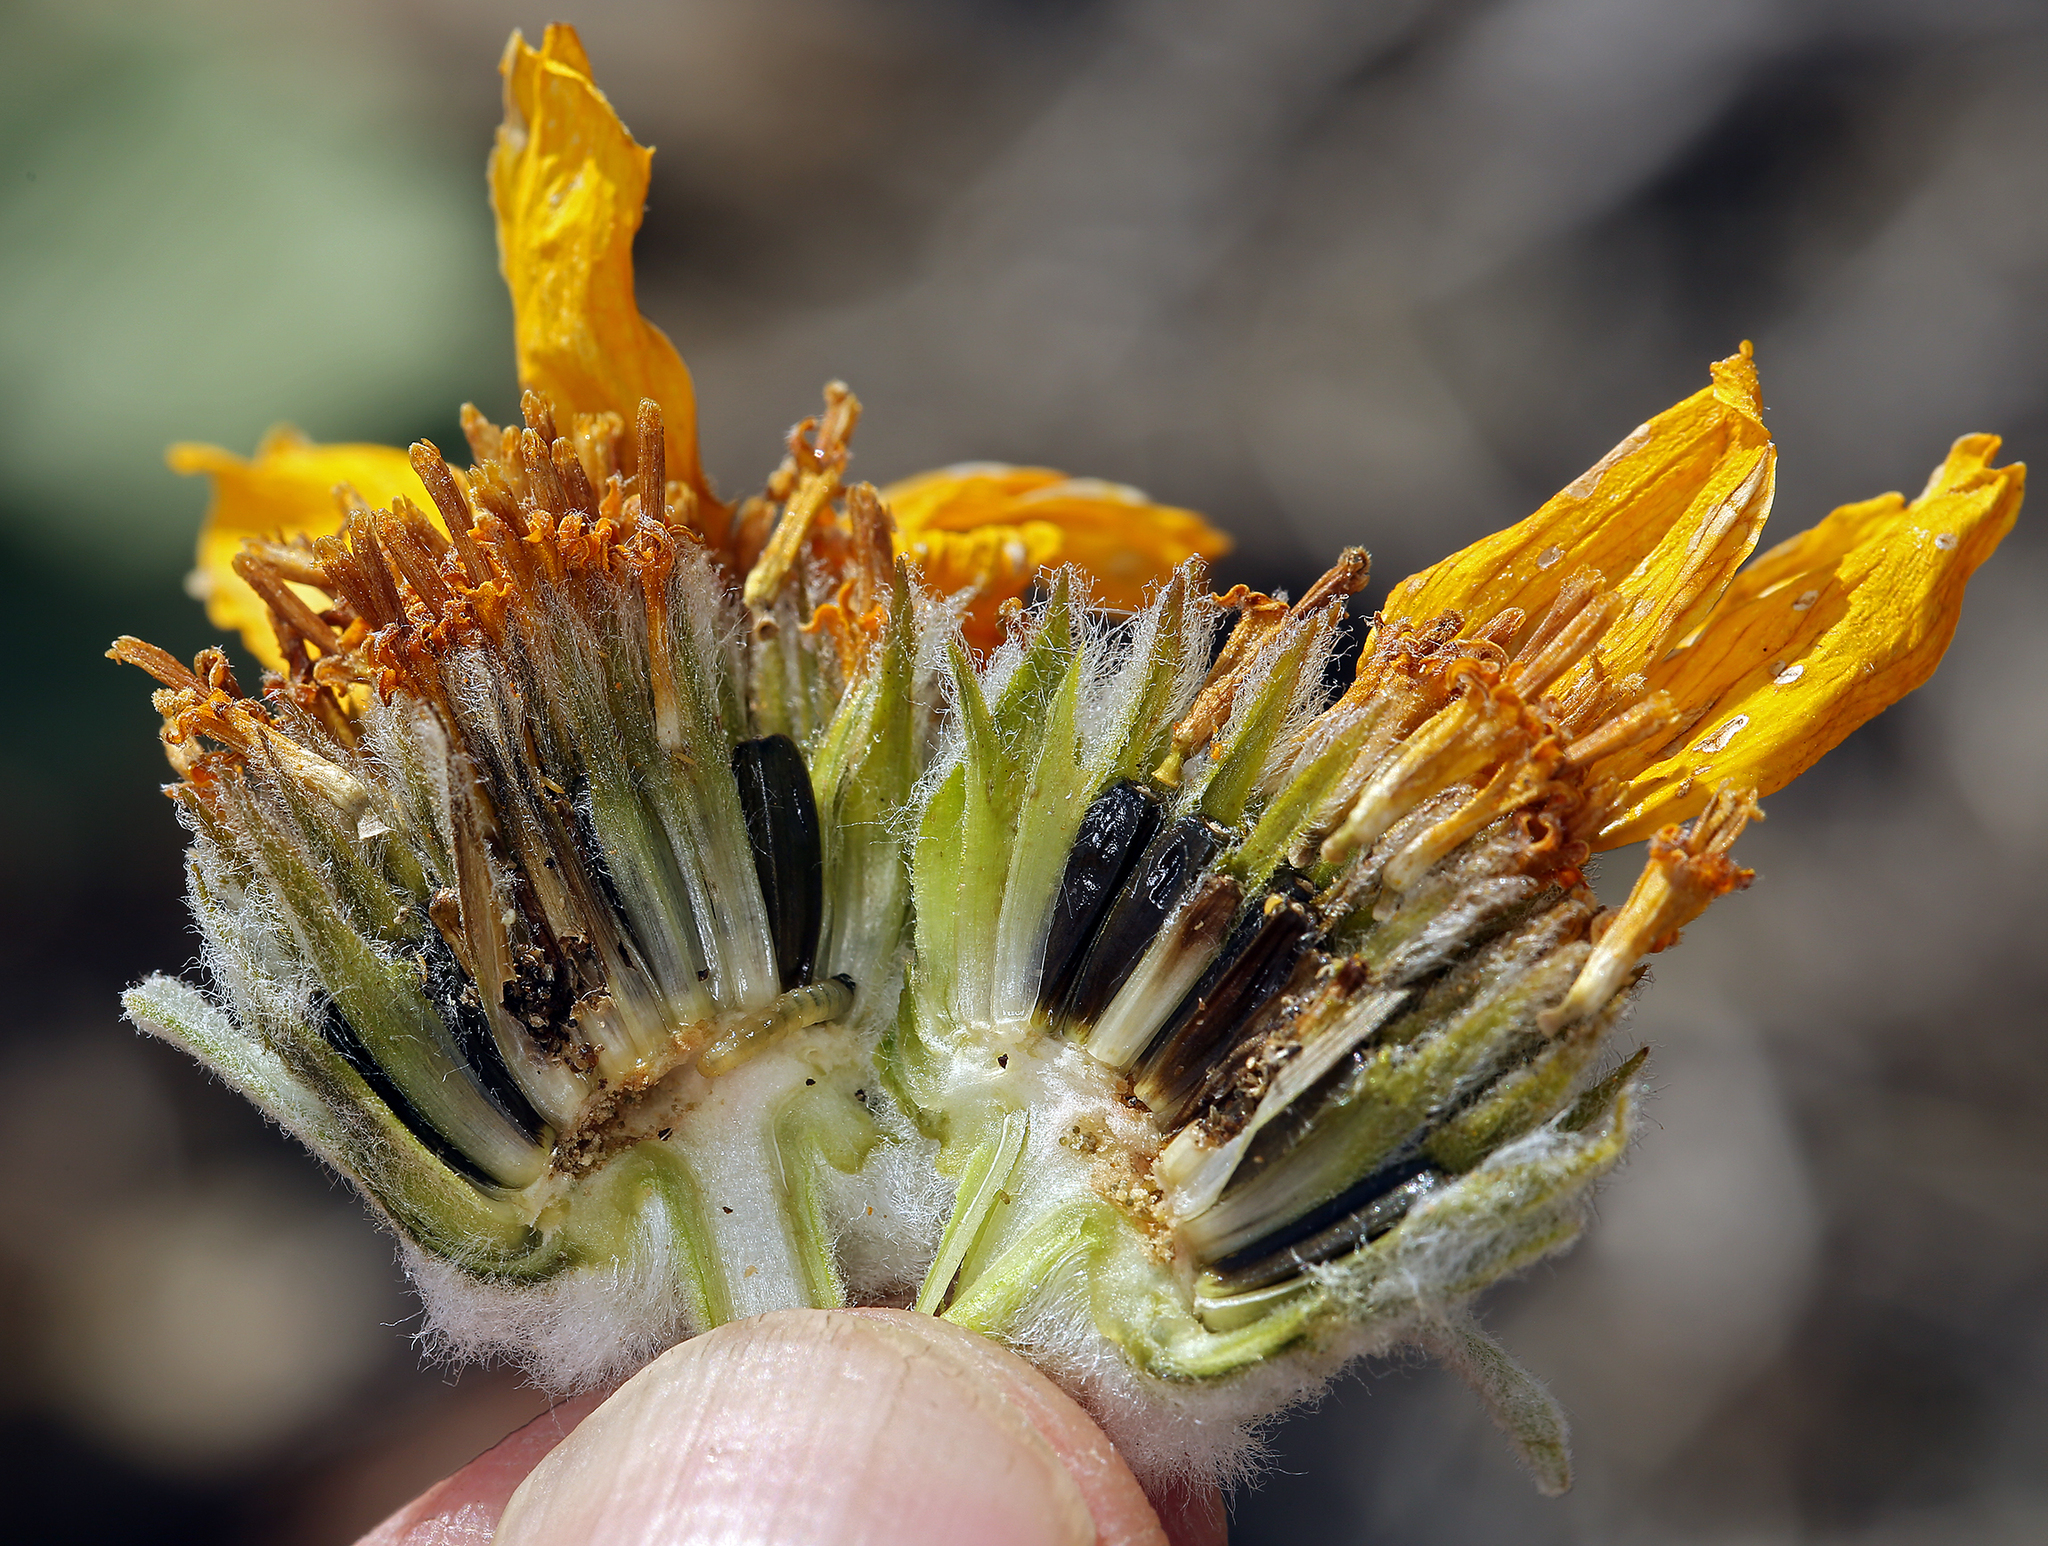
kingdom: Plantae
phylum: Tracheophyta
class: Magnoliopsida
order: Asterales
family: Asteraceae
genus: Wyethia
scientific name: Wyethia sagittata
